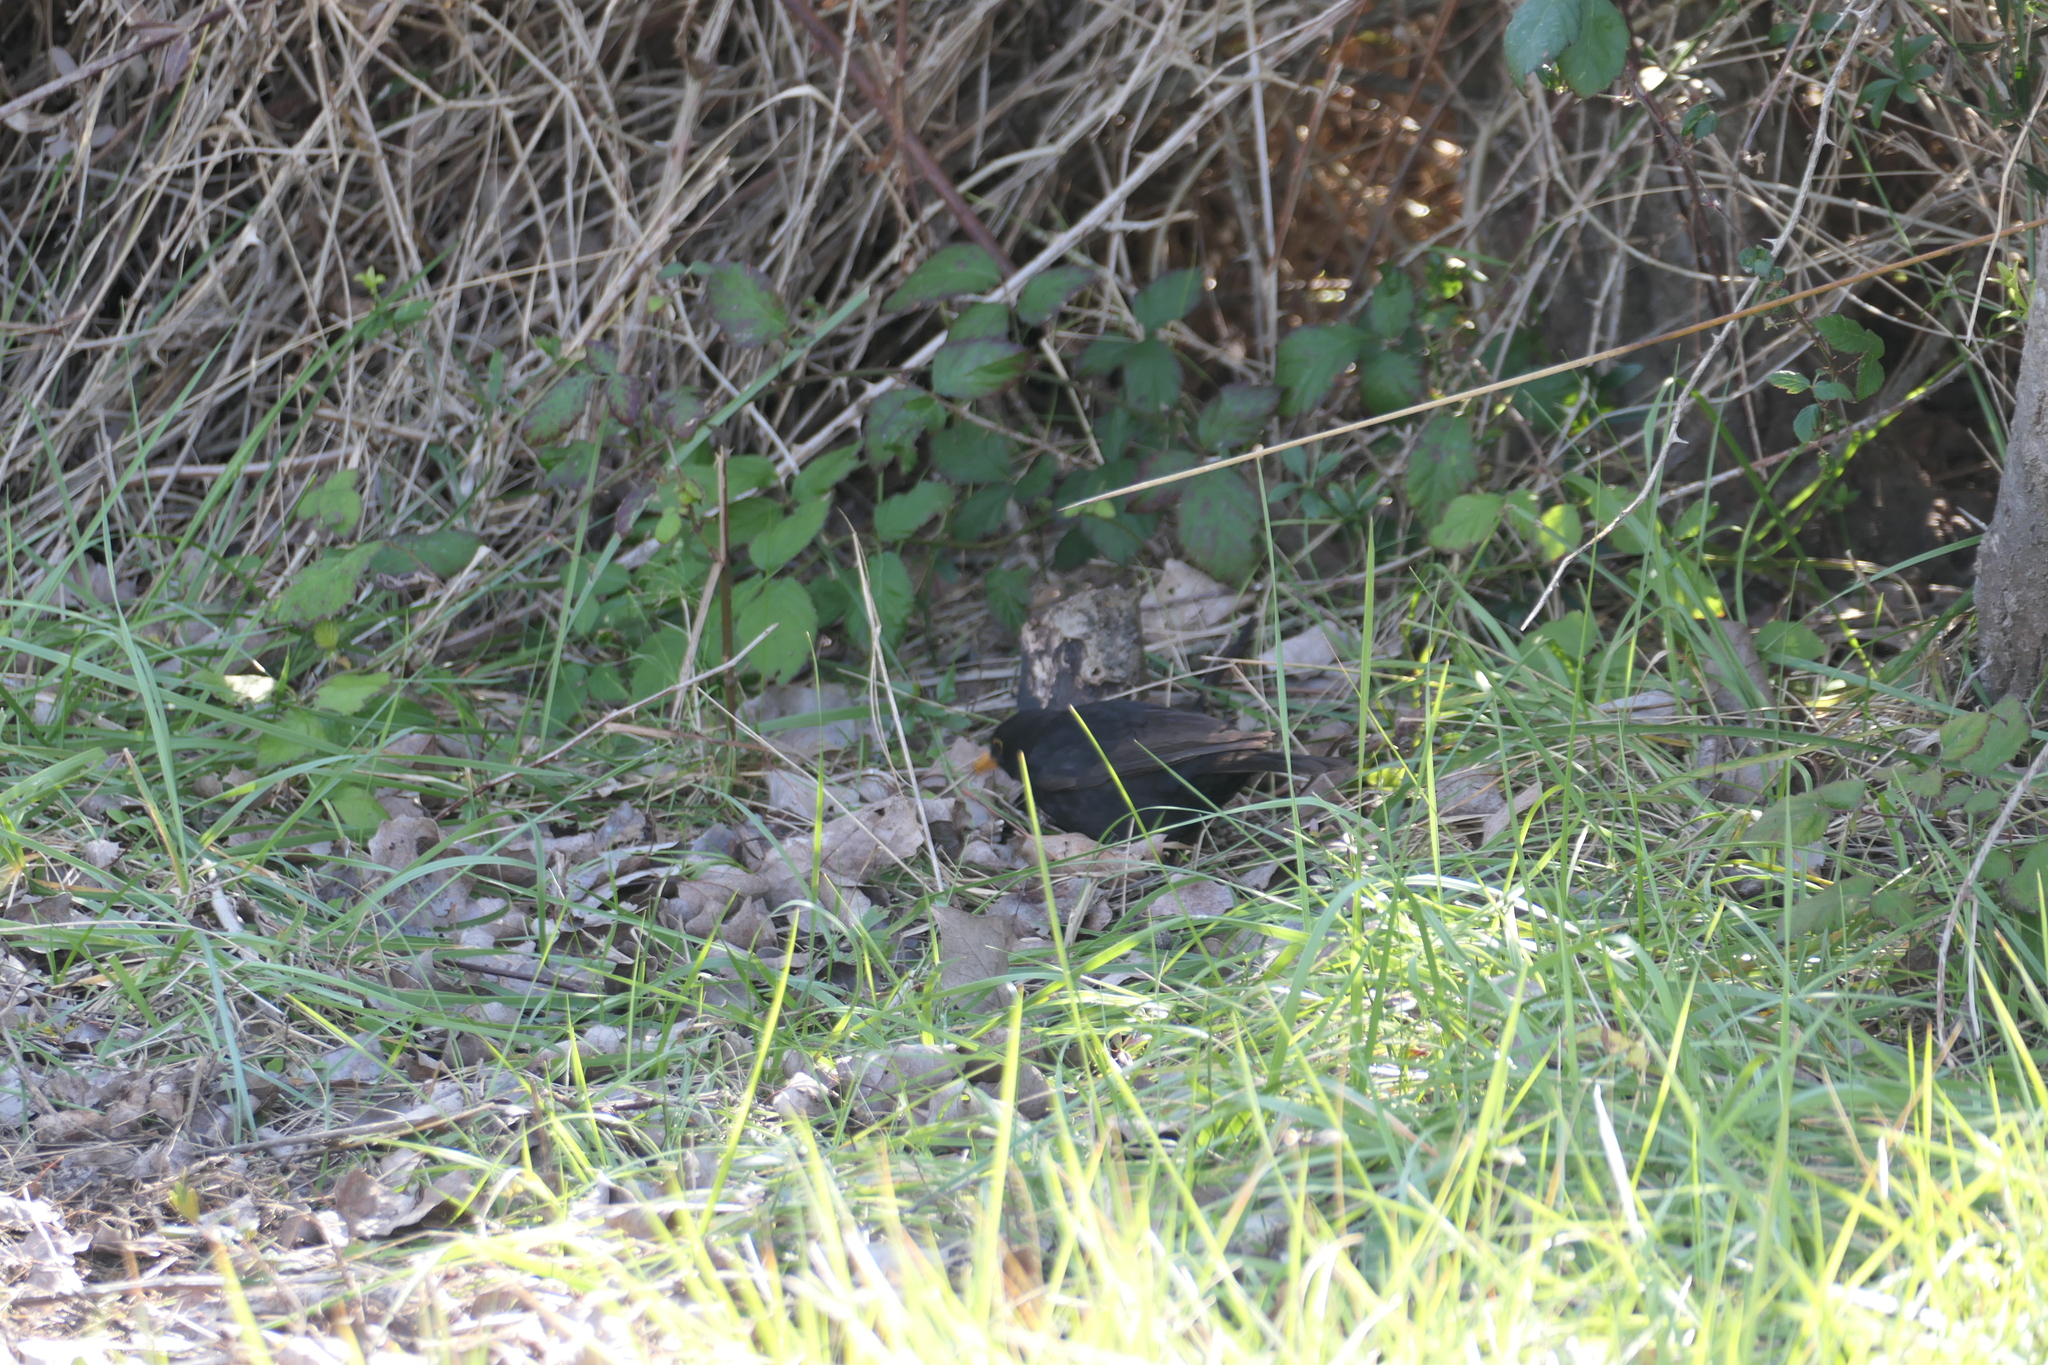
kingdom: Animalia
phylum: Chordata
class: Aves
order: Passeriformes
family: Turdidae
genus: Turdus
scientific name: Turdus merula
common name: Common blackbird
